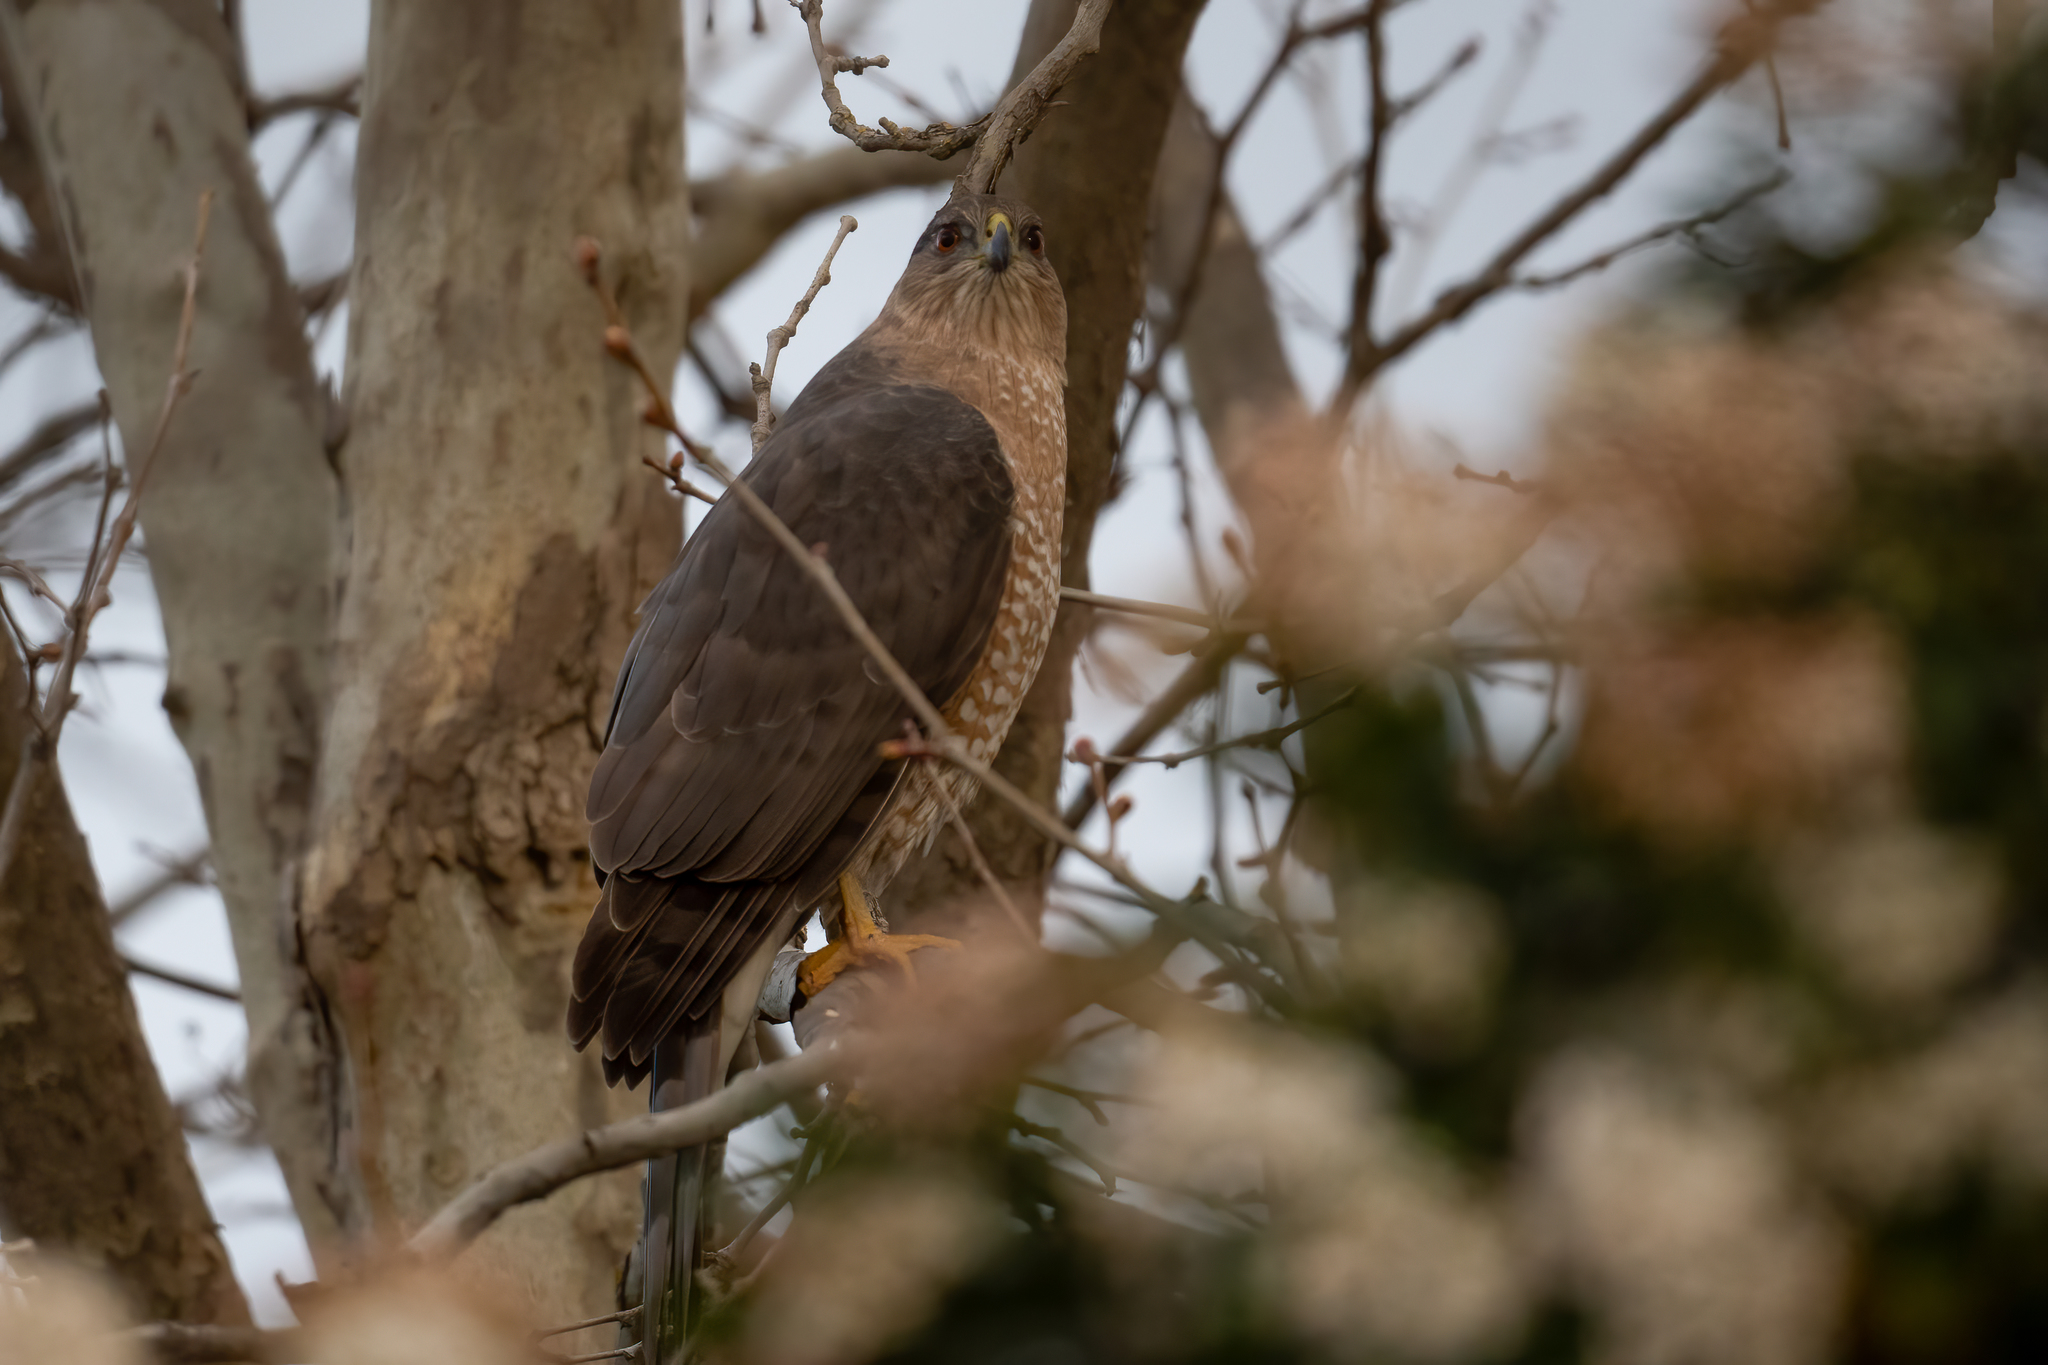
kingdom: Animalia
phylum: Chordata
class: Aves
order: Accipitriformes
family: Accipitridae
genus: Accipiter
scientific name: Accipiter cooperii
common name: Cooper's hawk
